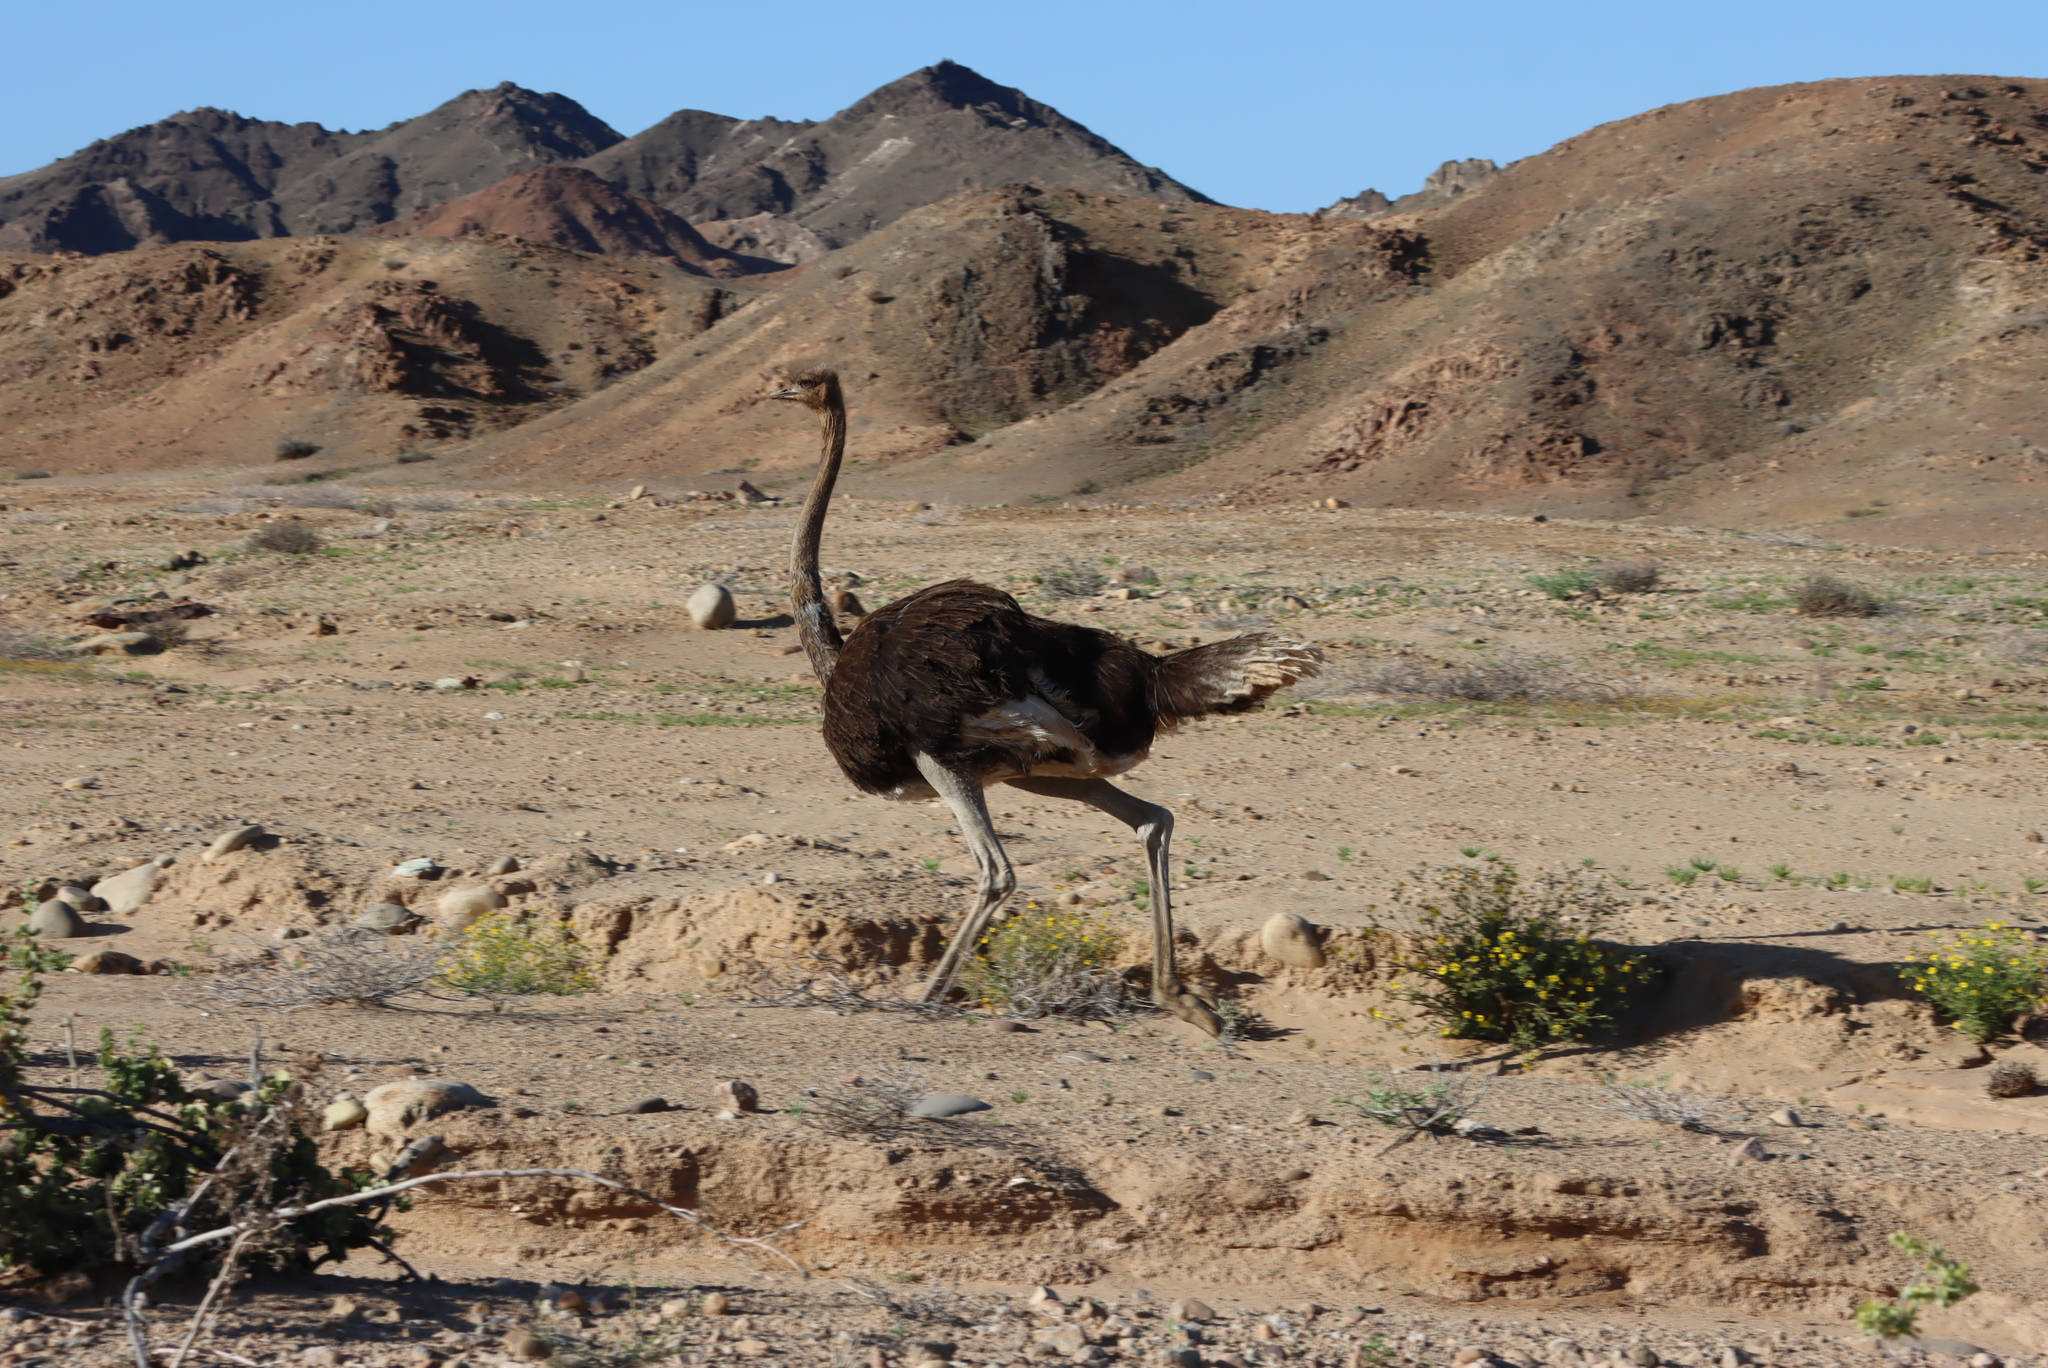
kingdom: Animalia
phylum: Chordata
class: Aves
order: Struthioniformes
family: Struthionidae
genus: Struthio
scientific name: Struthio camelus
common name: Common ostrich
